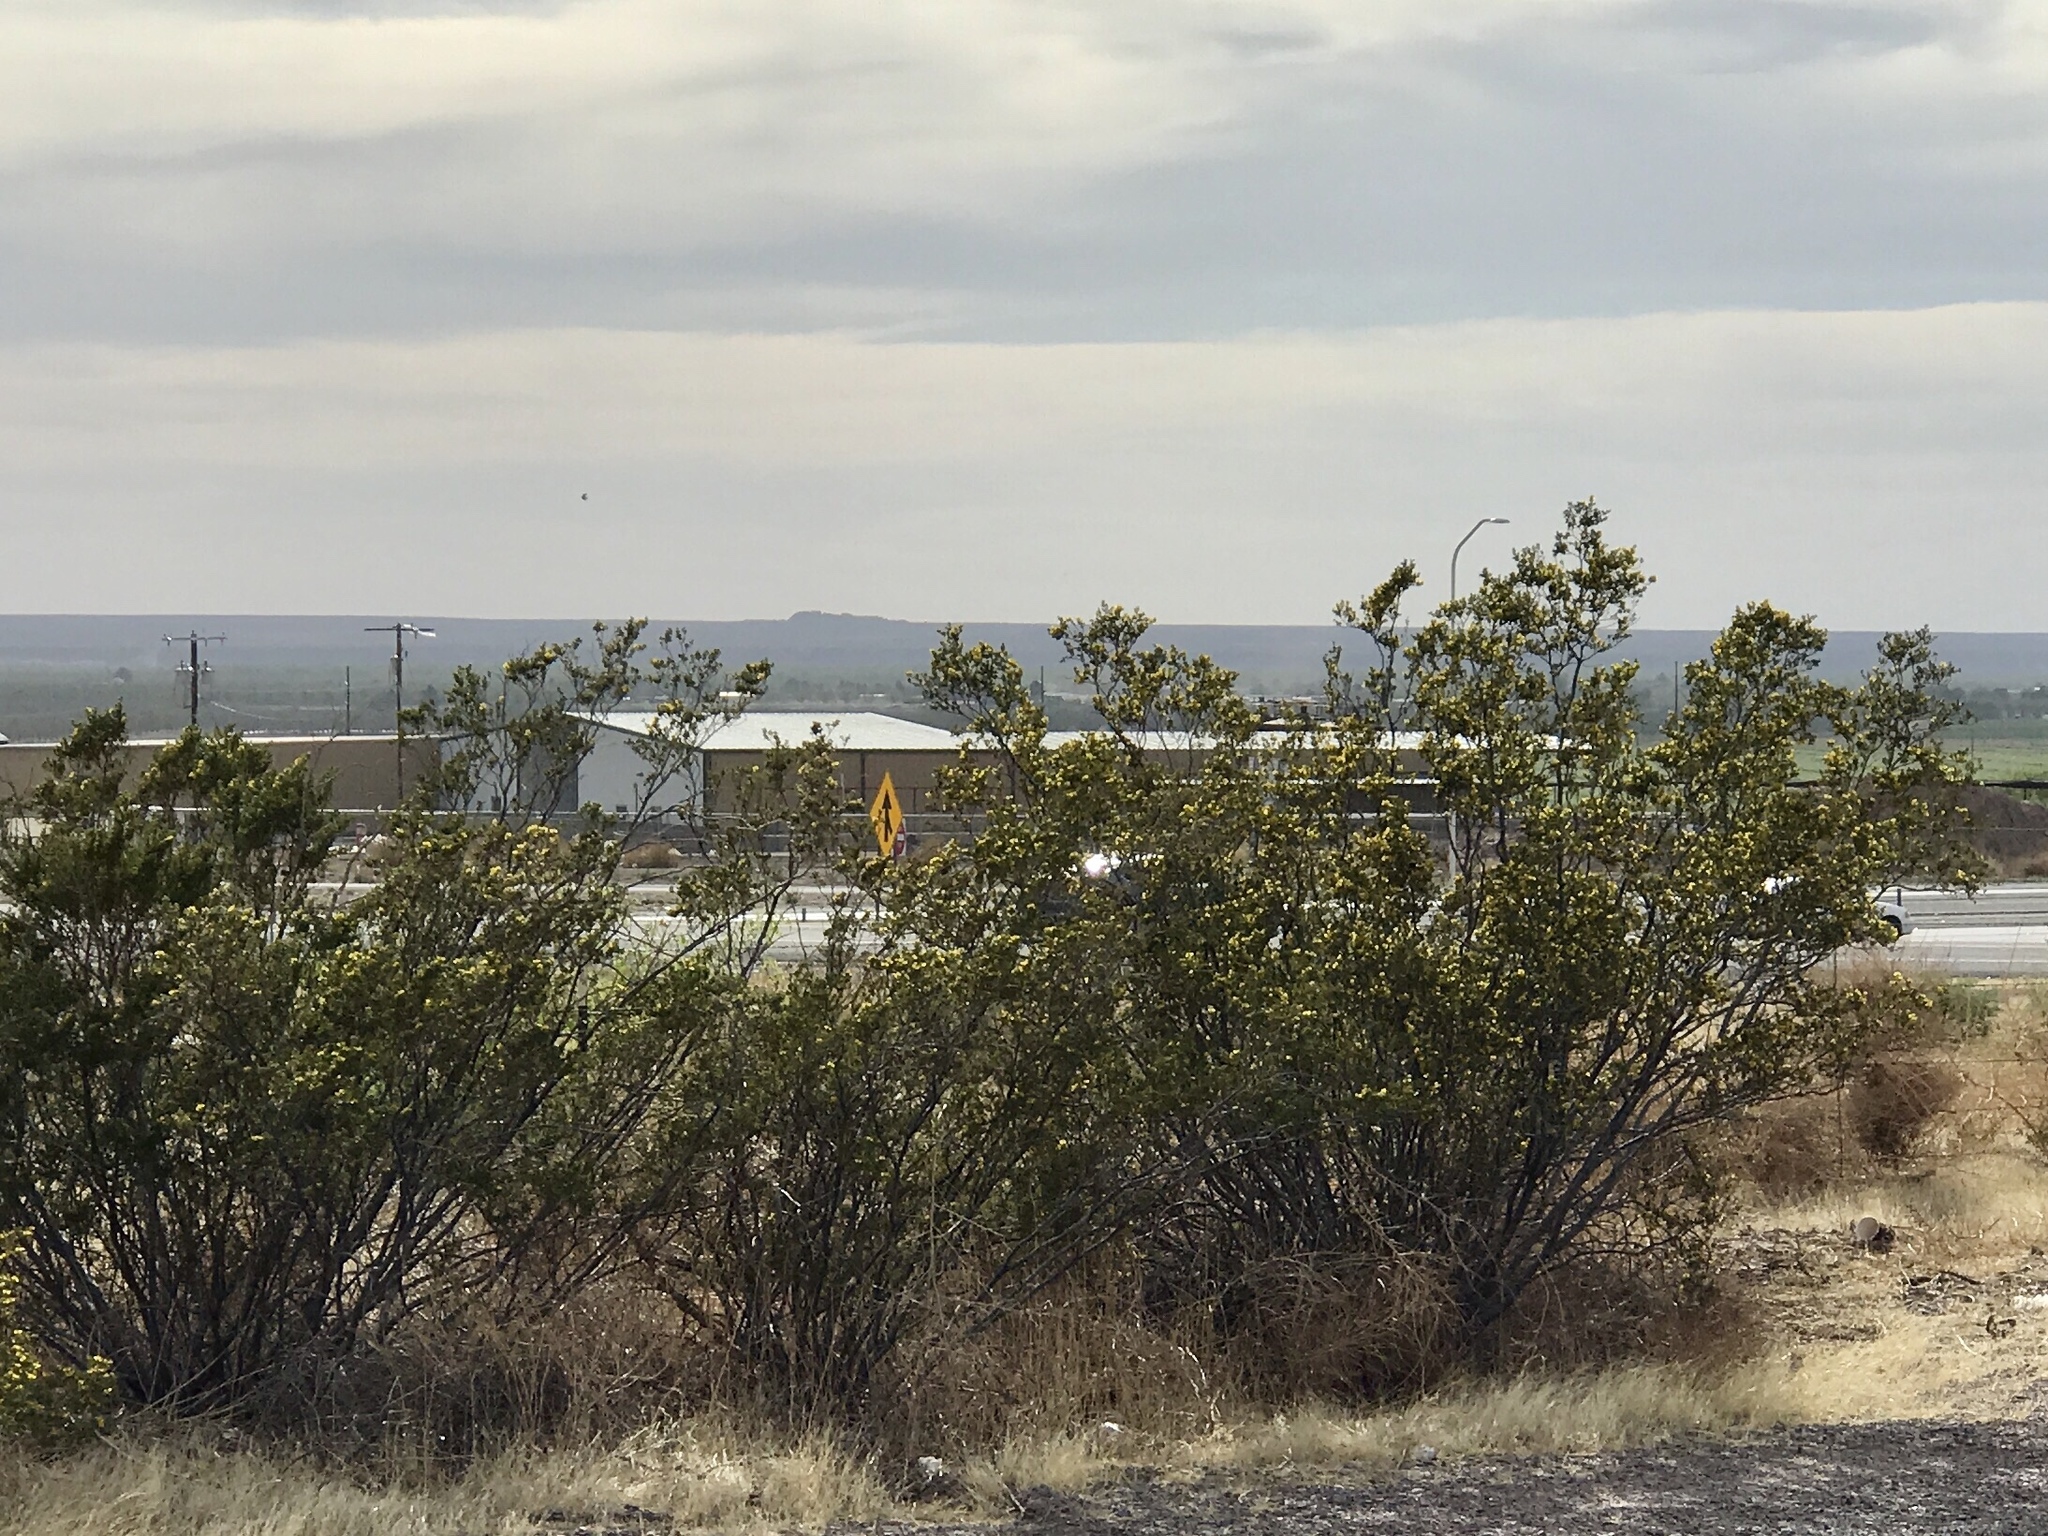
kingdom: Plantae
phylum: Tracheophyta
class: Magnoliopsida
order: Zygophyllales
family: Zygophyllaceae
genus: Larrea
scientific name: Larrea tridentata
